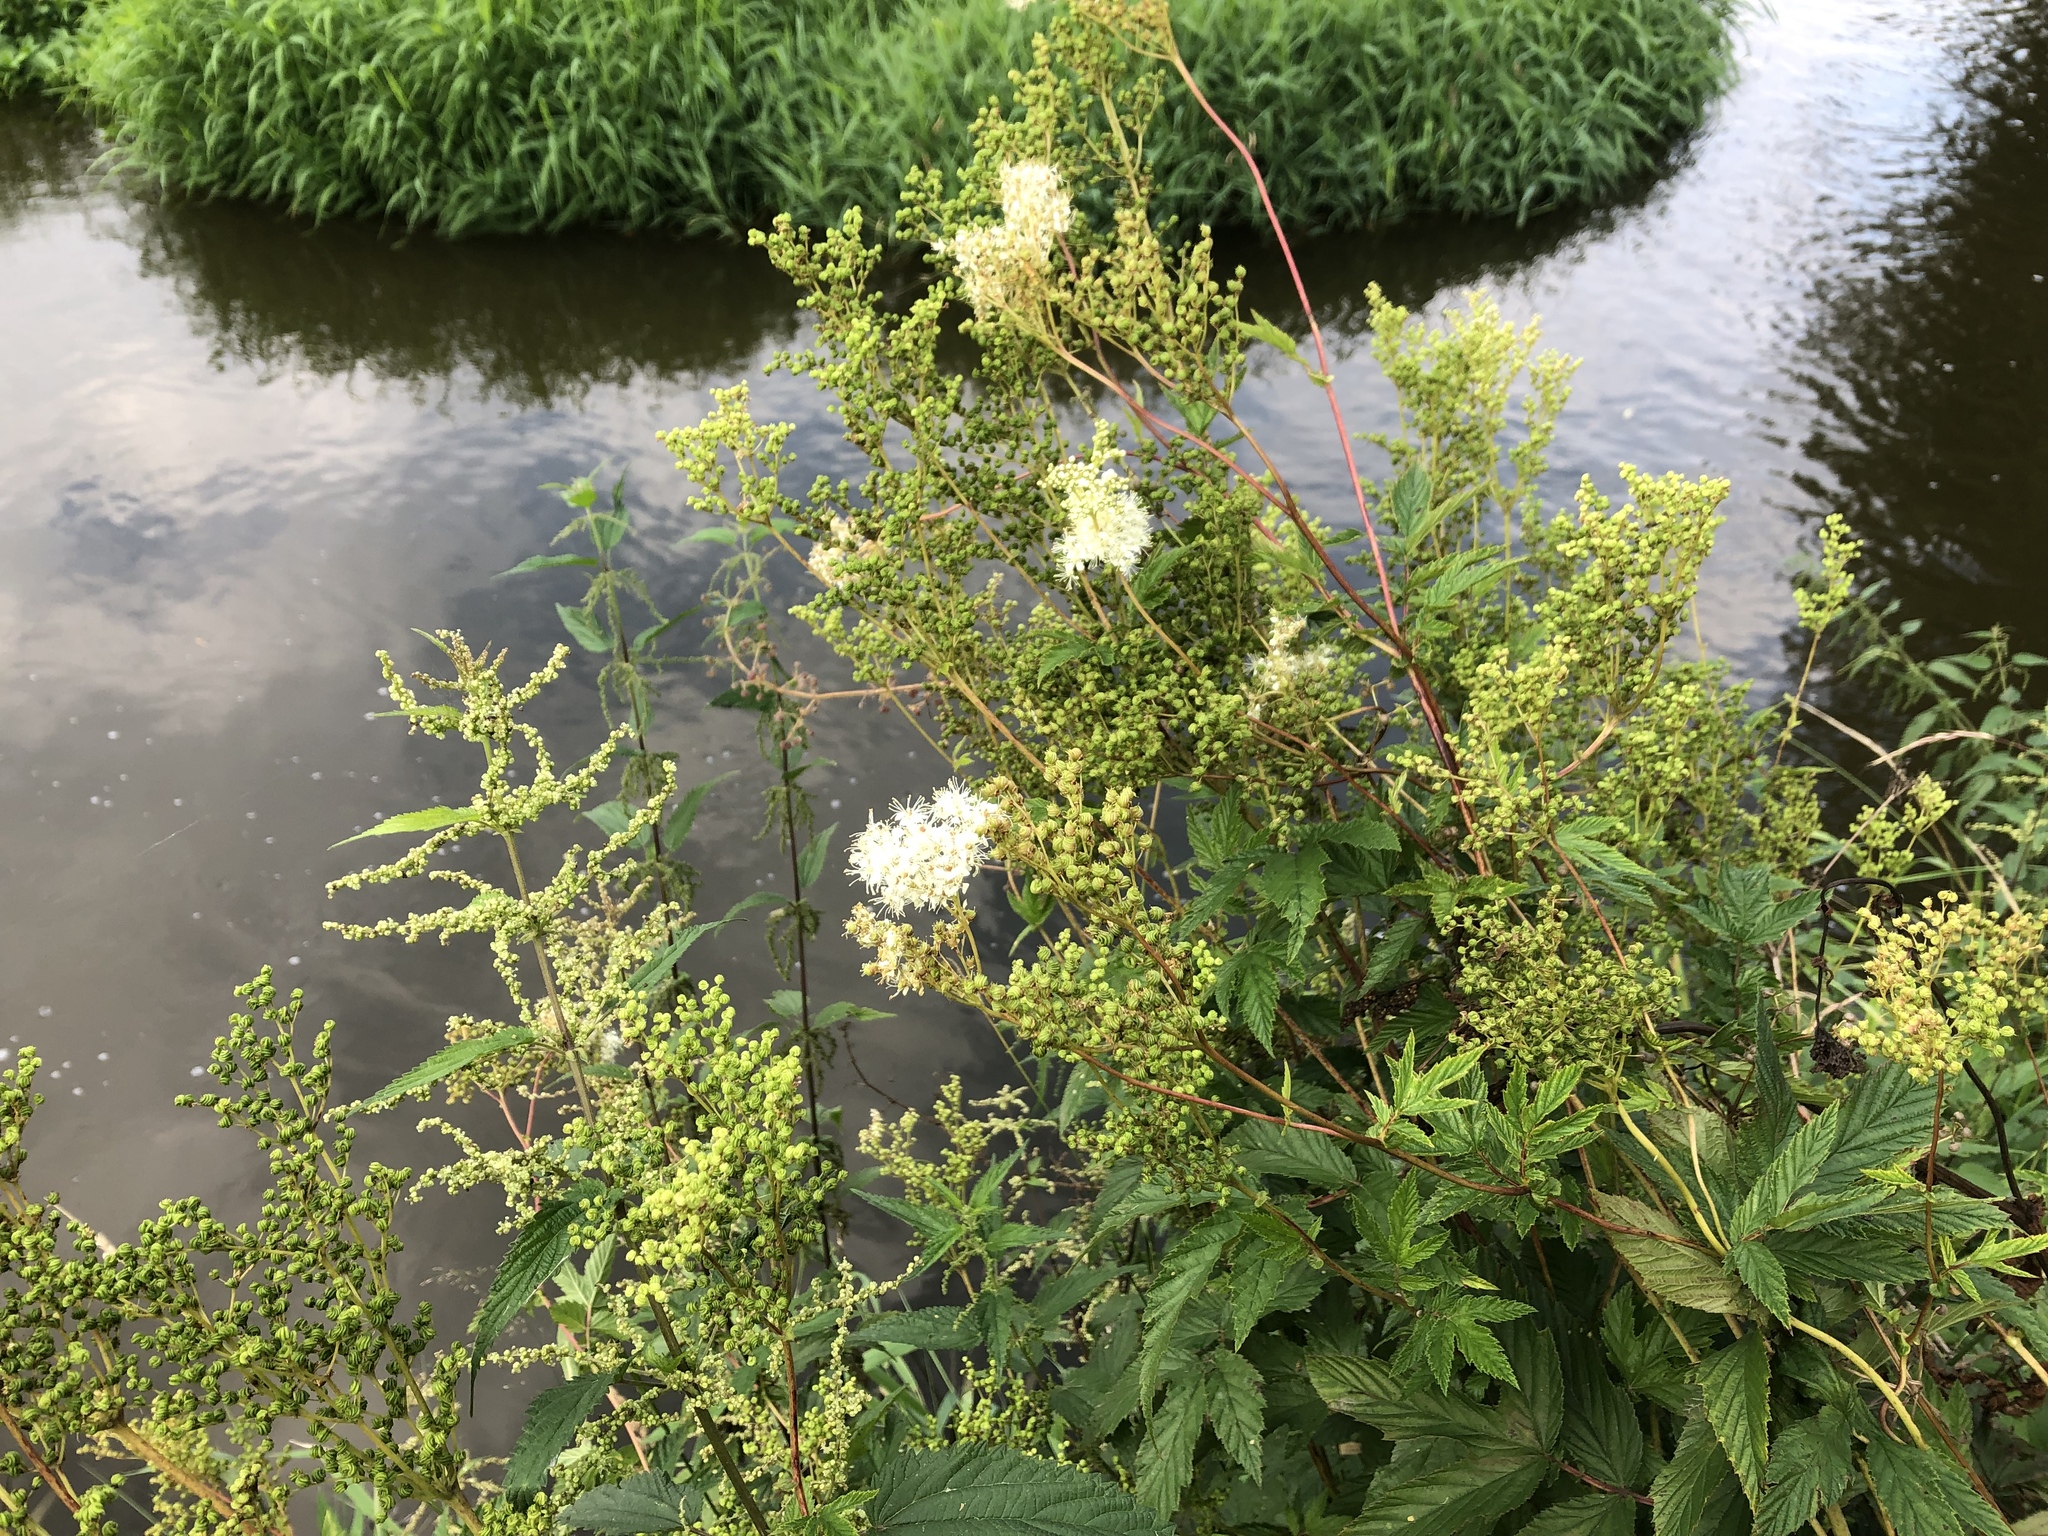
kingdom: Plantae
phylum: Tracheophyta
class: Magnoliopsida
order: Rosales
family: Rosaceae
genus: Filipendula
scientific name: Filipendula ulmaria
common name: Meadowsweet
